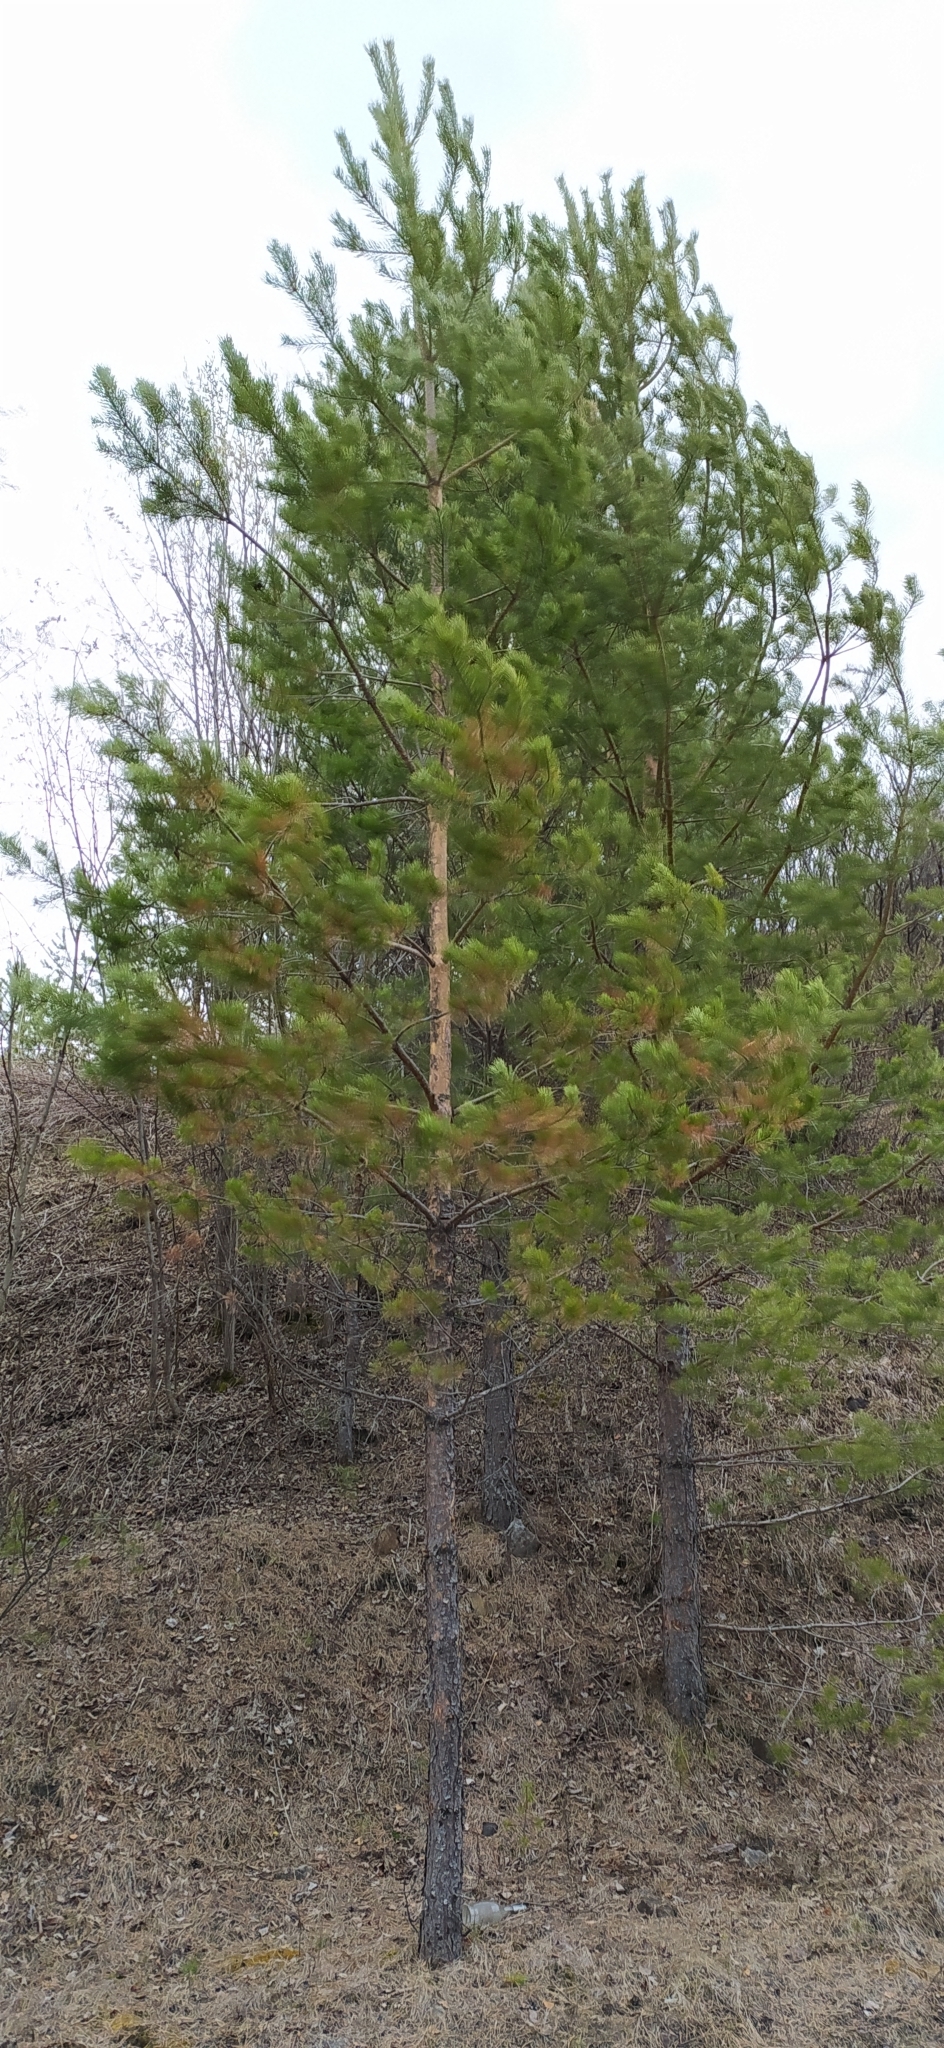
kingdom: Plantae
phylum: Tracheophyta
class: Pinopsida
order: Pinales
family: Pinaceae
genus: Pinus
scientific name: Pinus sylvestris
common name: Scots pine
